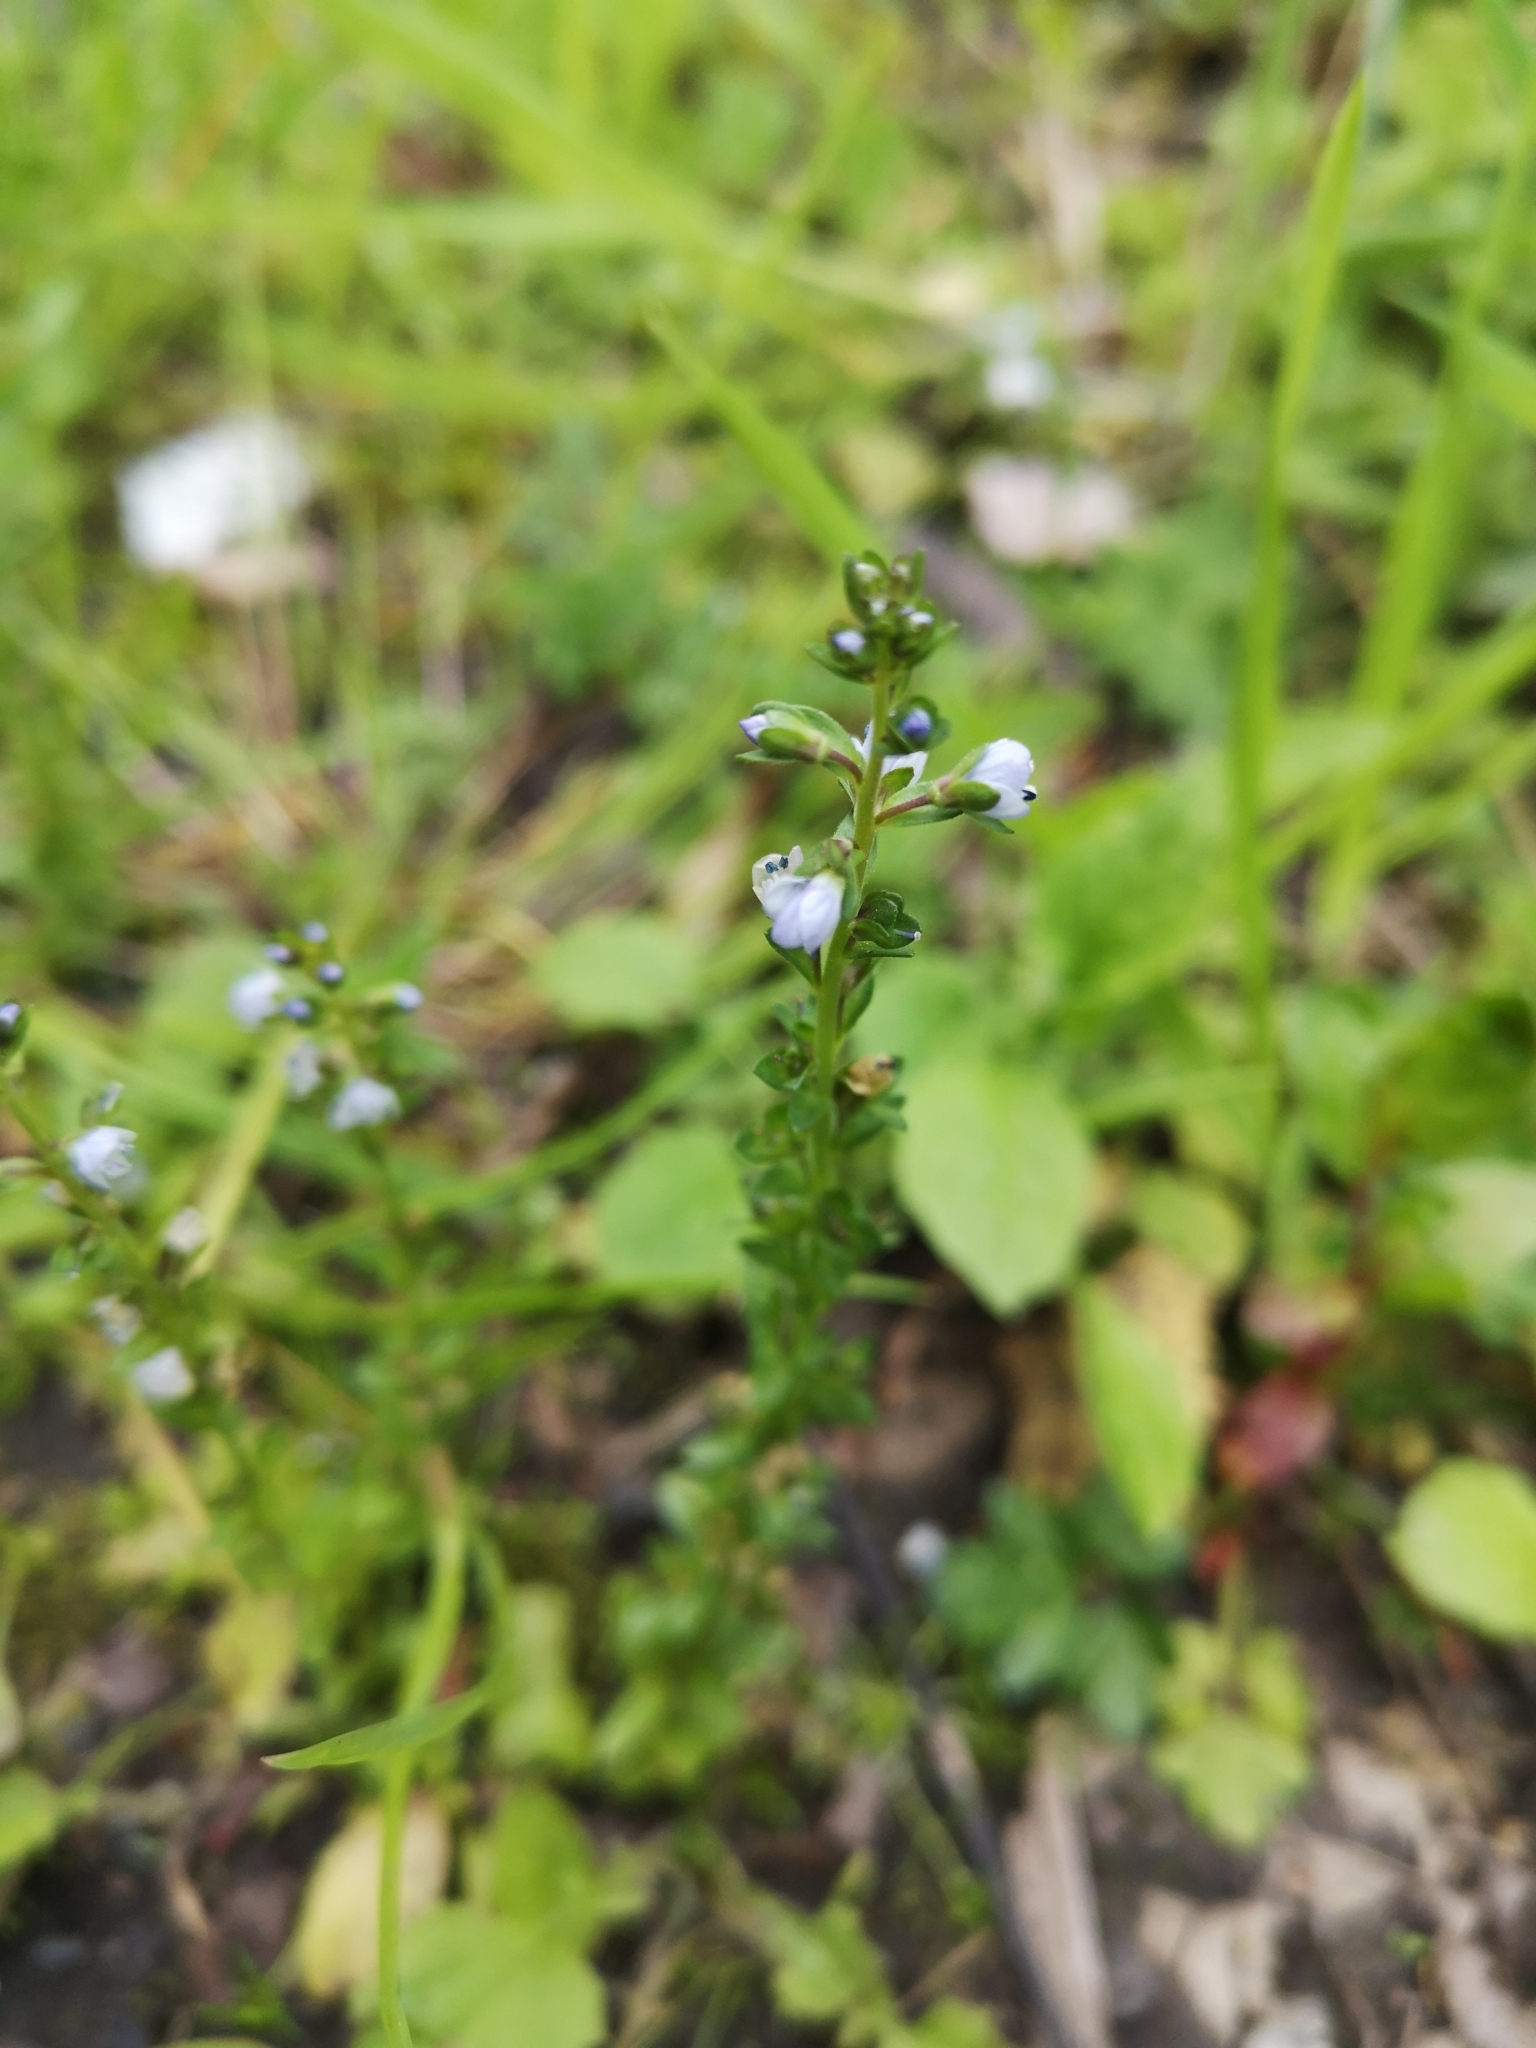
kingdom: Plantae
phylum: Tracheophyta
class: Magnoliopsida
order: Lamiales
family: Plantaginaceae
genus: Veronica
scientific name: Veronica serpyllifolia
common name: Thyme-leaved speedwell
